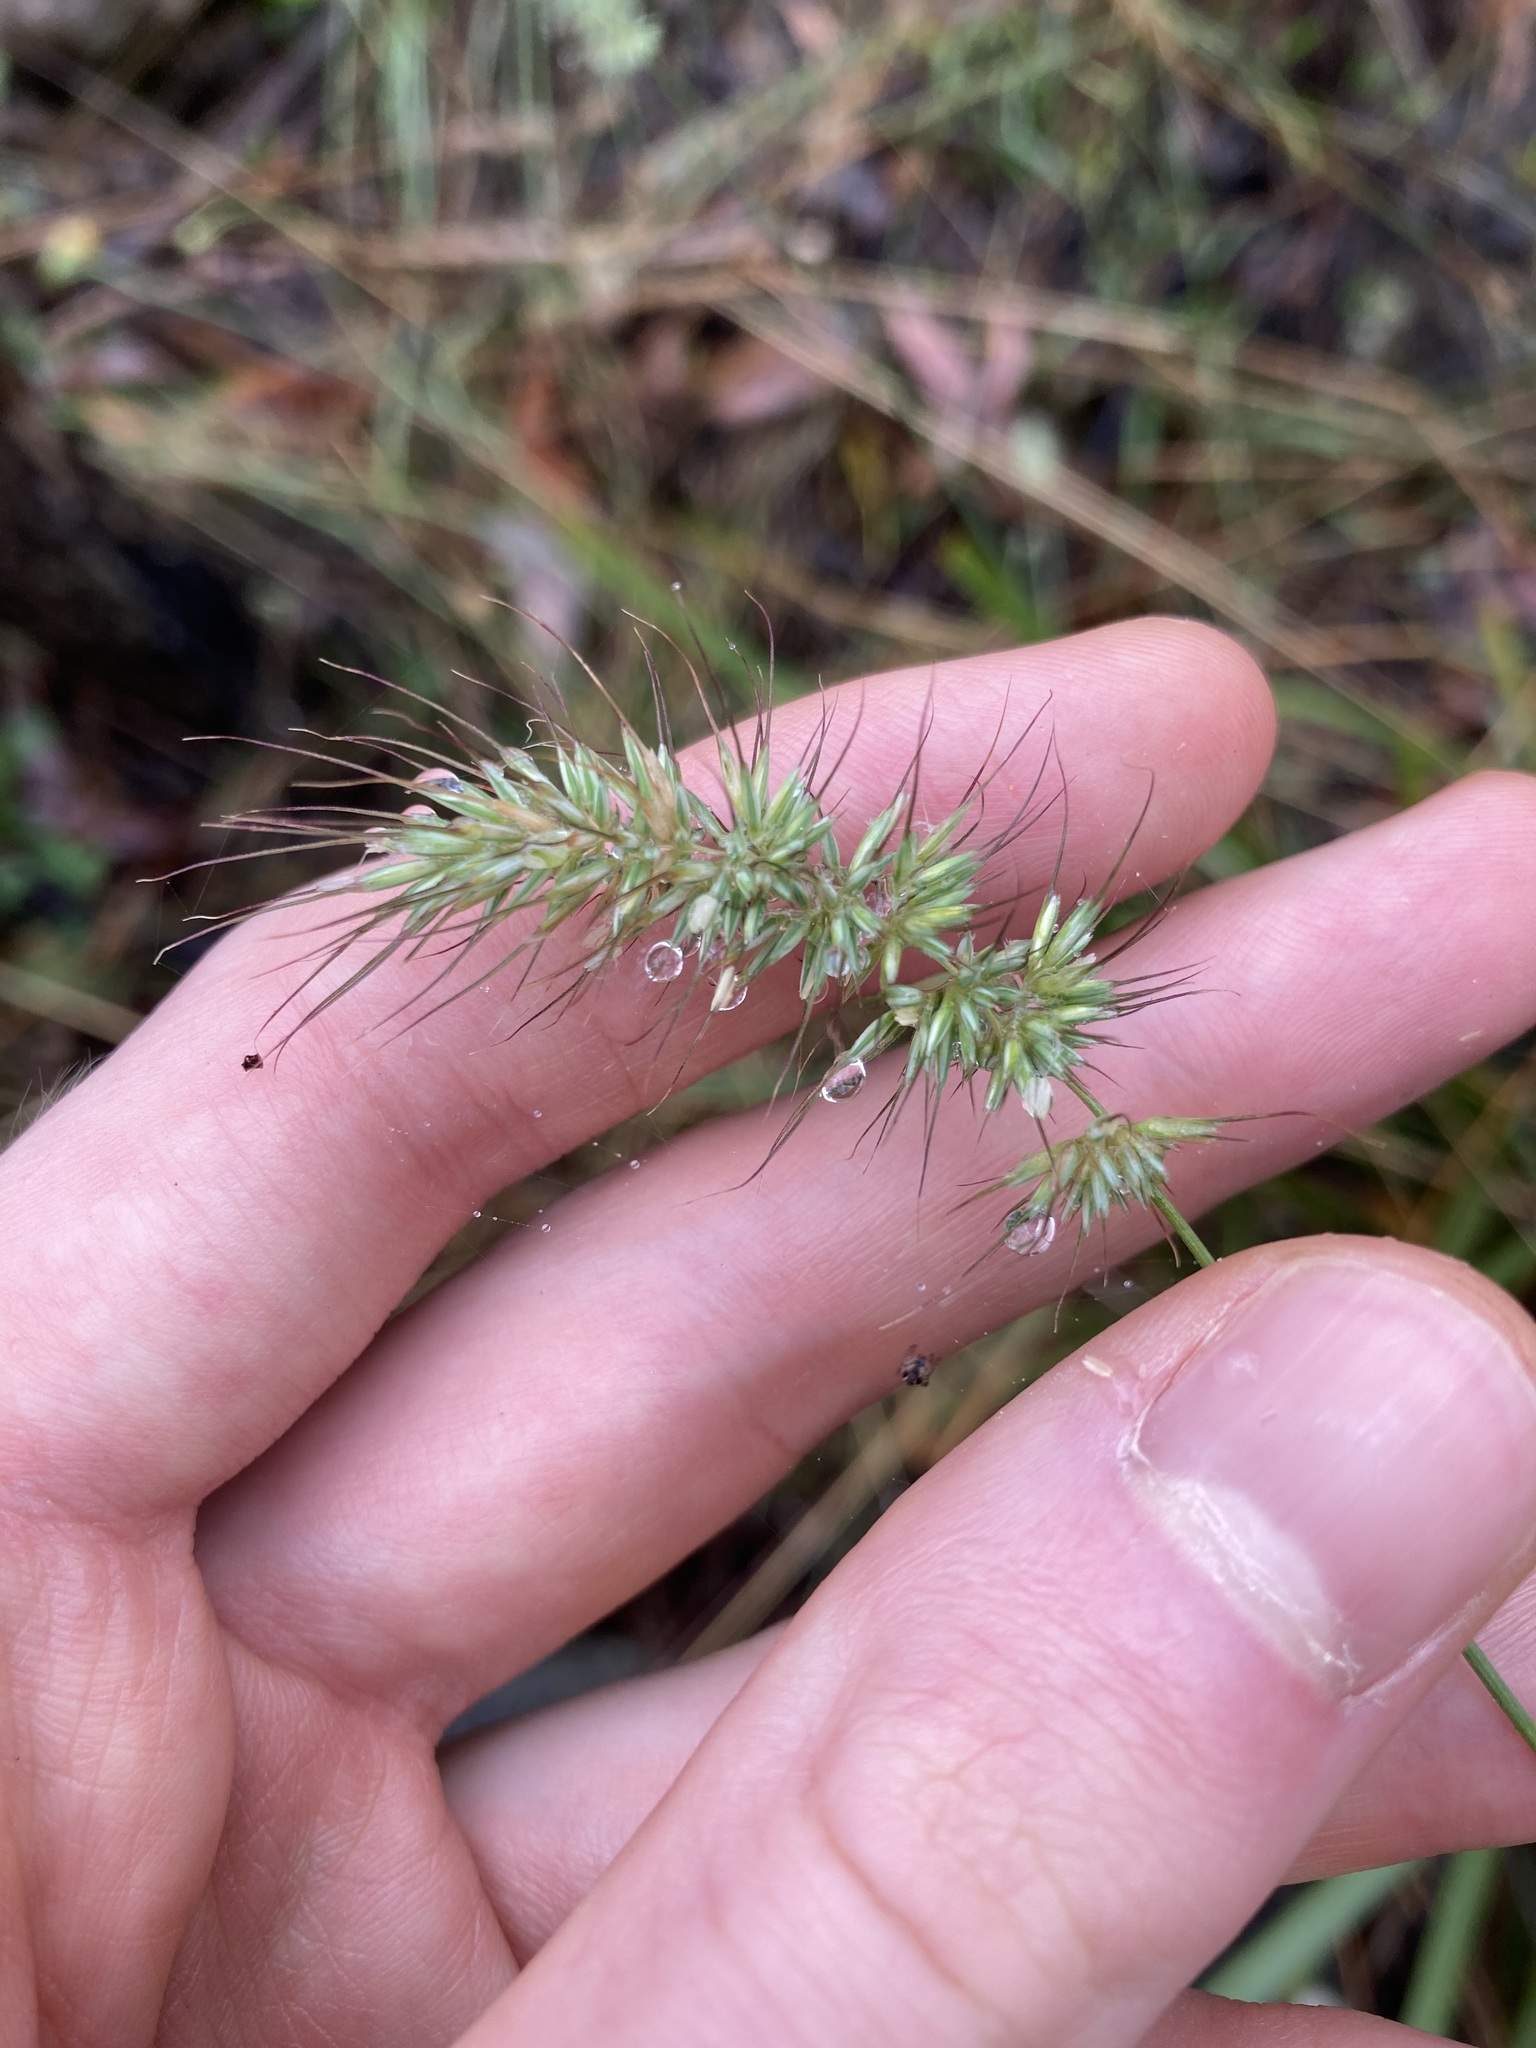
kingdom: Plantae
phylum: Tracheophyta
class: Liliopsida
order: Poales
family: Poaceae
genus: Echinopogon
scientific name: Echinopogon caespitosus
